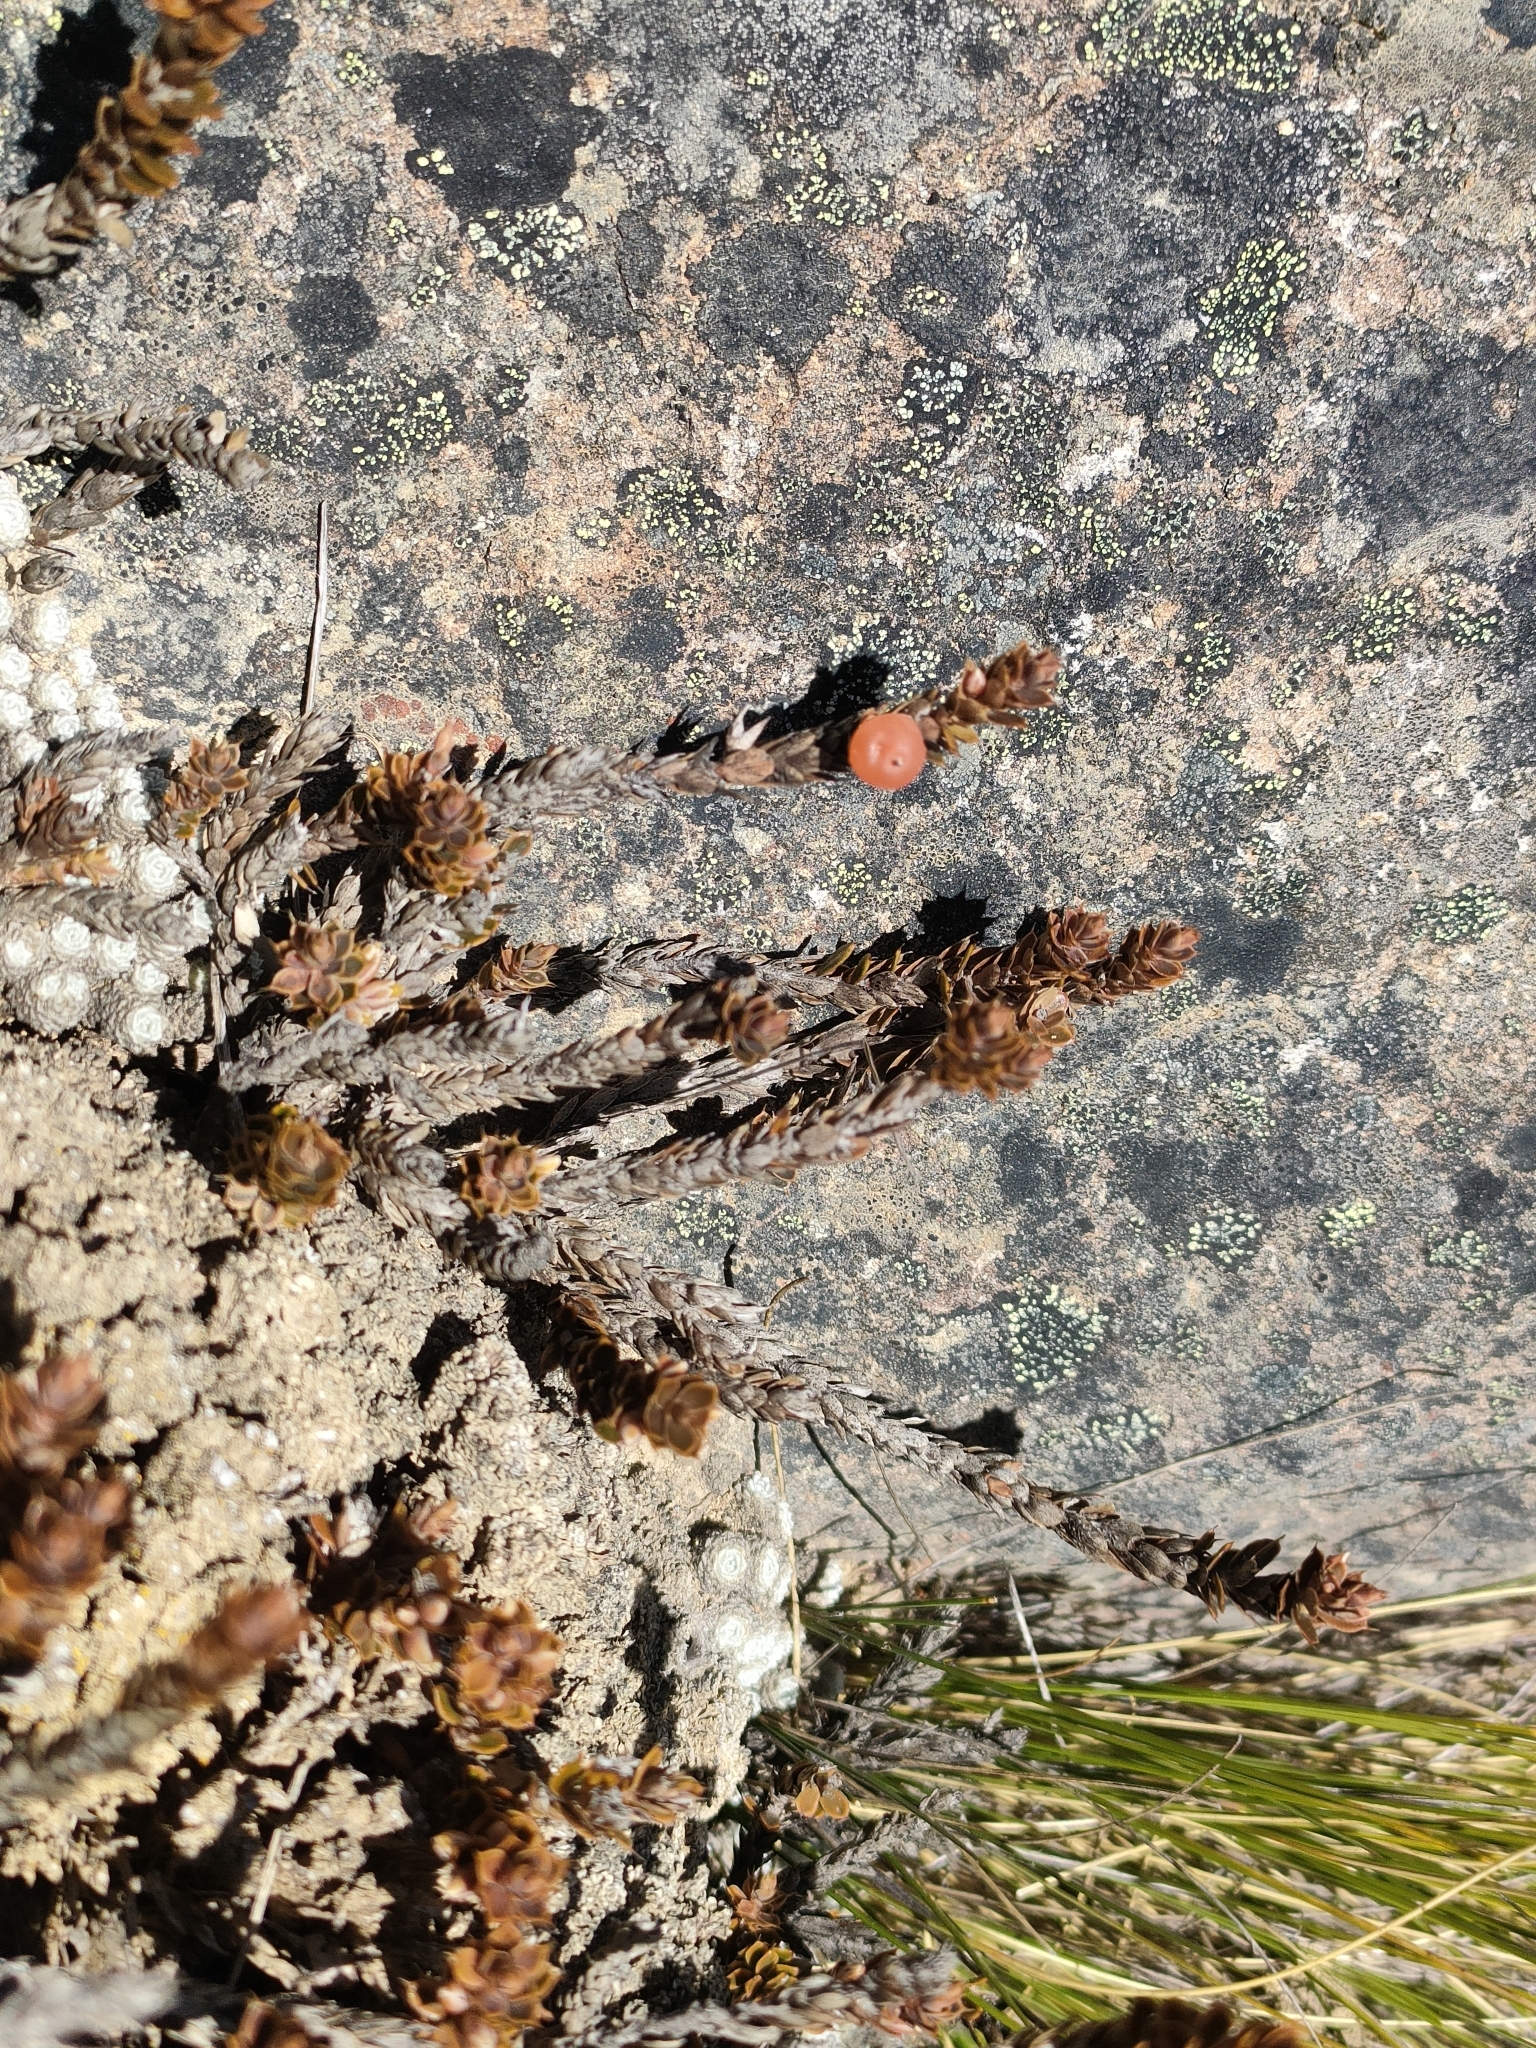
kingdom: Plantae
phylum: Tracheophyta
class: Magnoliopsida
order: Ericales
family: Ericaceae
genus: Styphelia
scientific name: Styphelia nesophila
